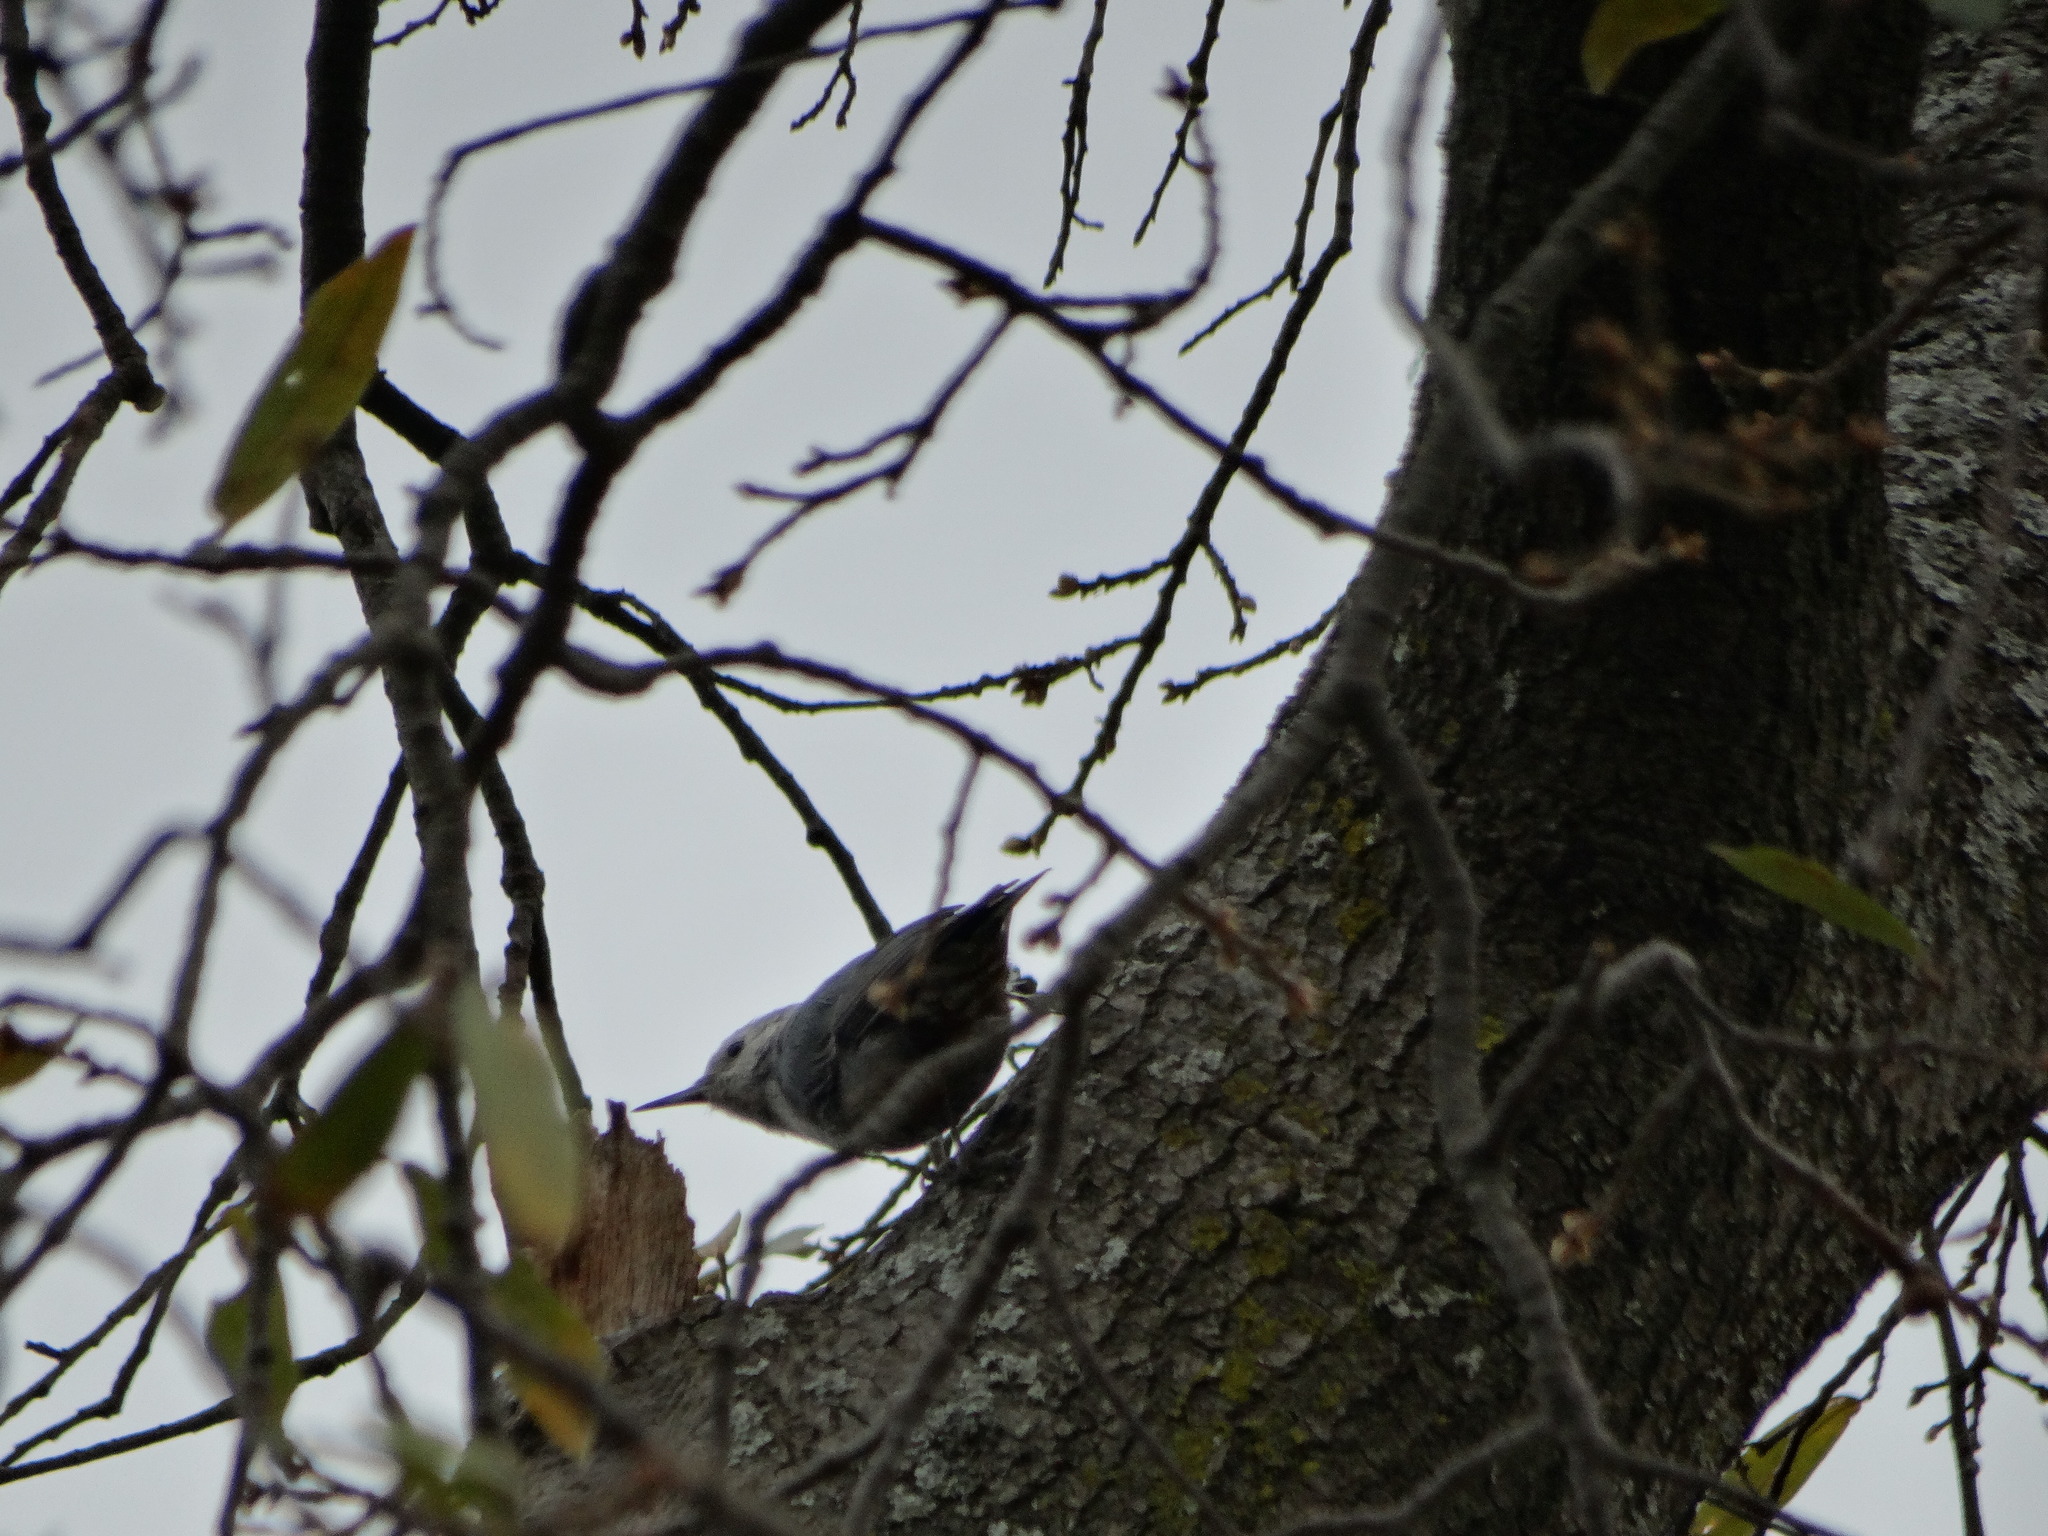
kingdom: Animalia
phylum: Chordata
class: Aves
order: Passeriformes
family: Sittidae
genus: Sitta
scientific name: Sitta carolinensis
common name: White-breasted nuthatch
